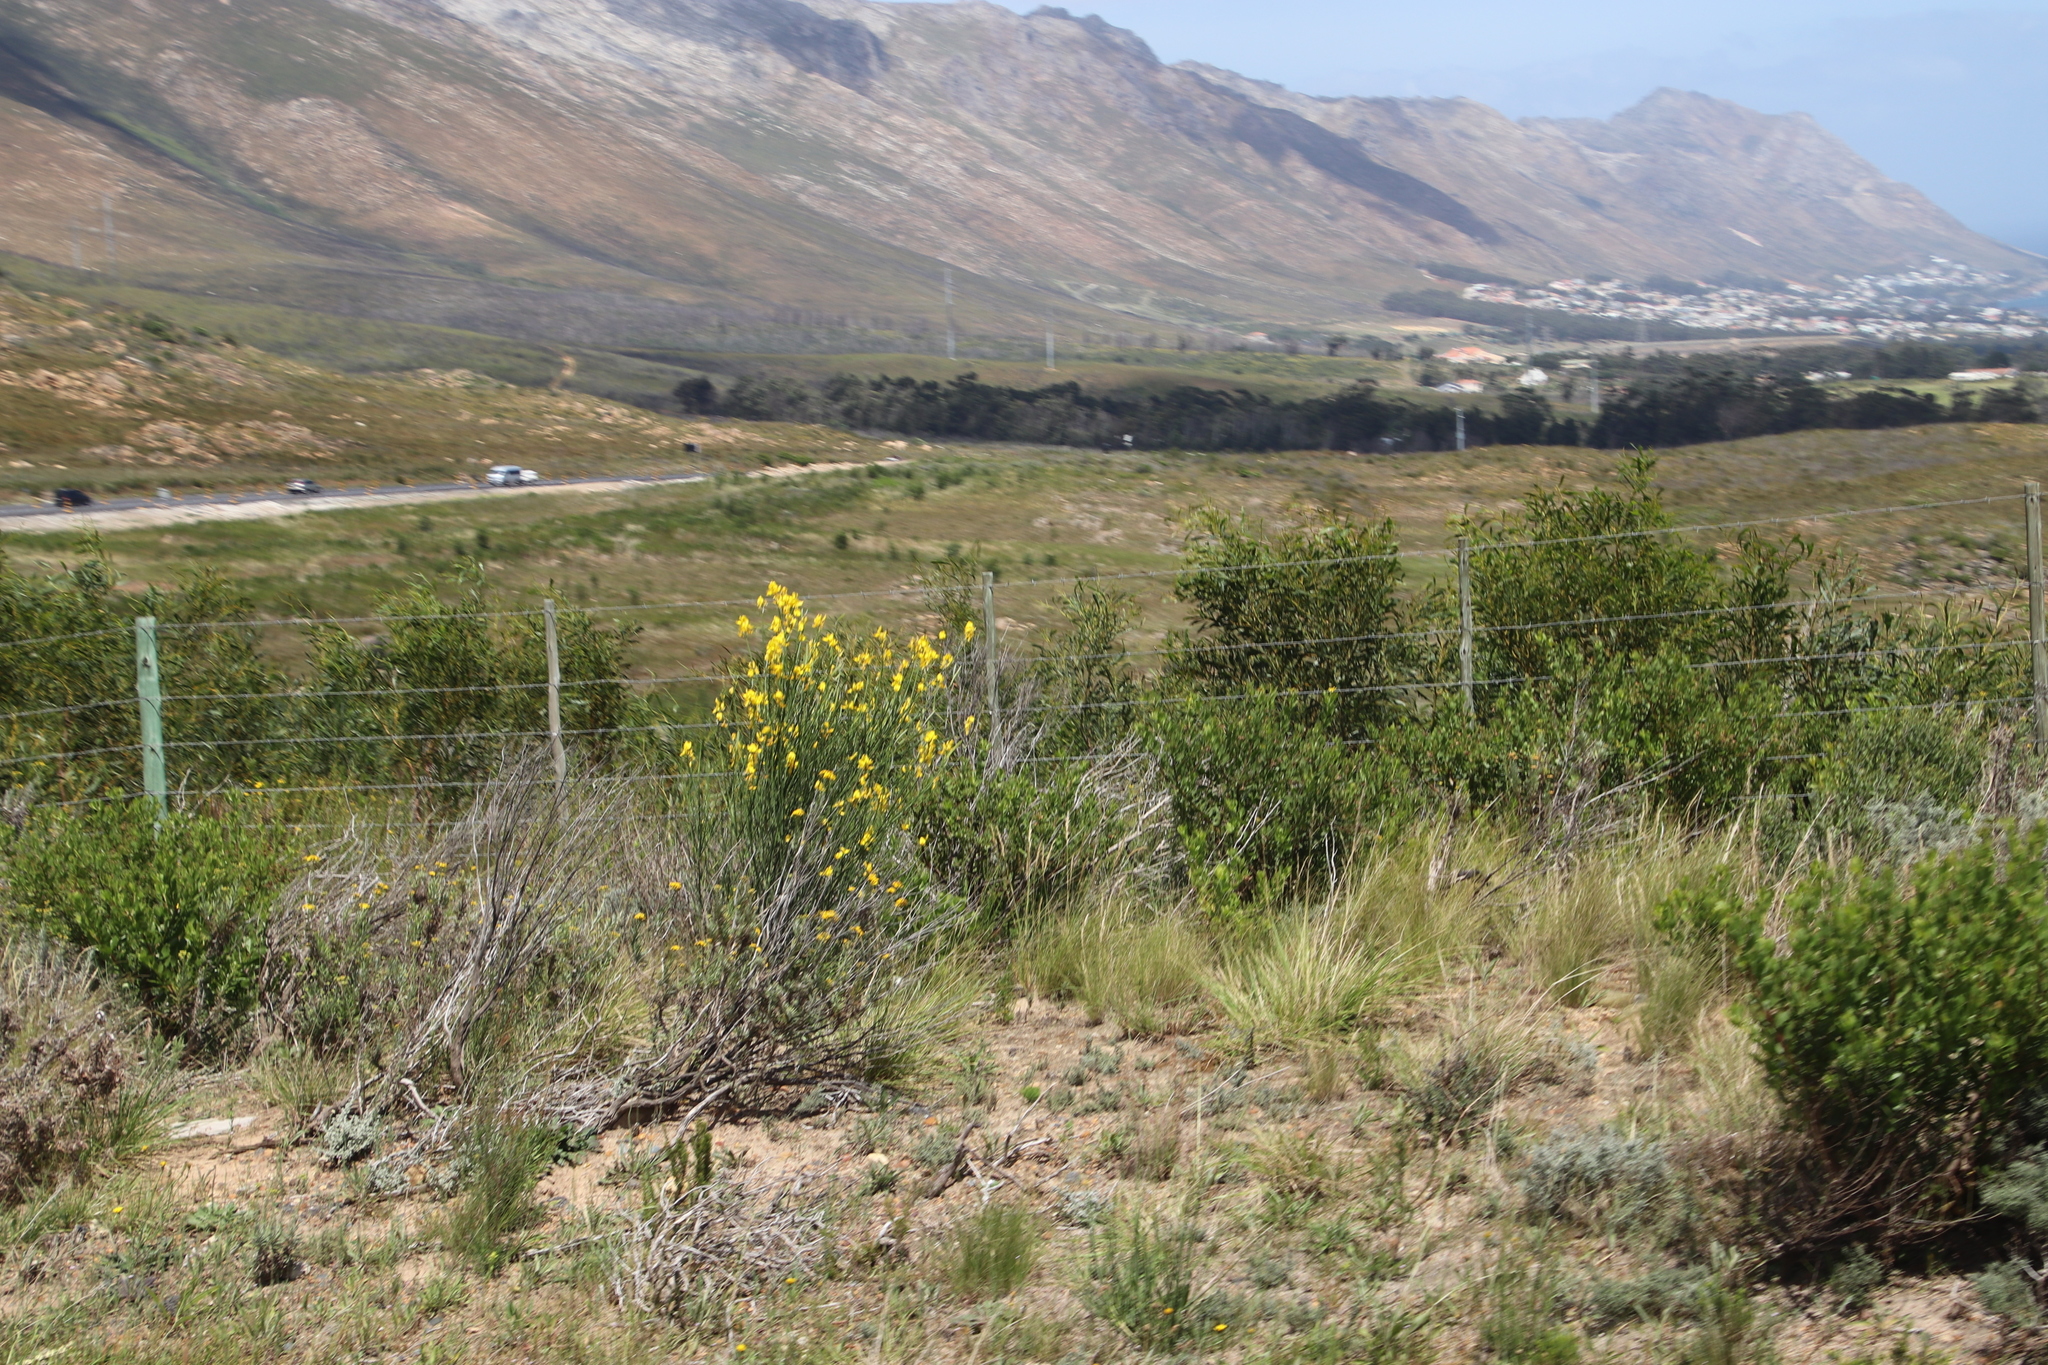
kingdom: Plantae
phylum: Tracheophyta
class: Magnoliopsida
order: Fabales
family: Fabaceae
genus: Spartium
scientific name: Spartium junceum
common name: Spanish broom
